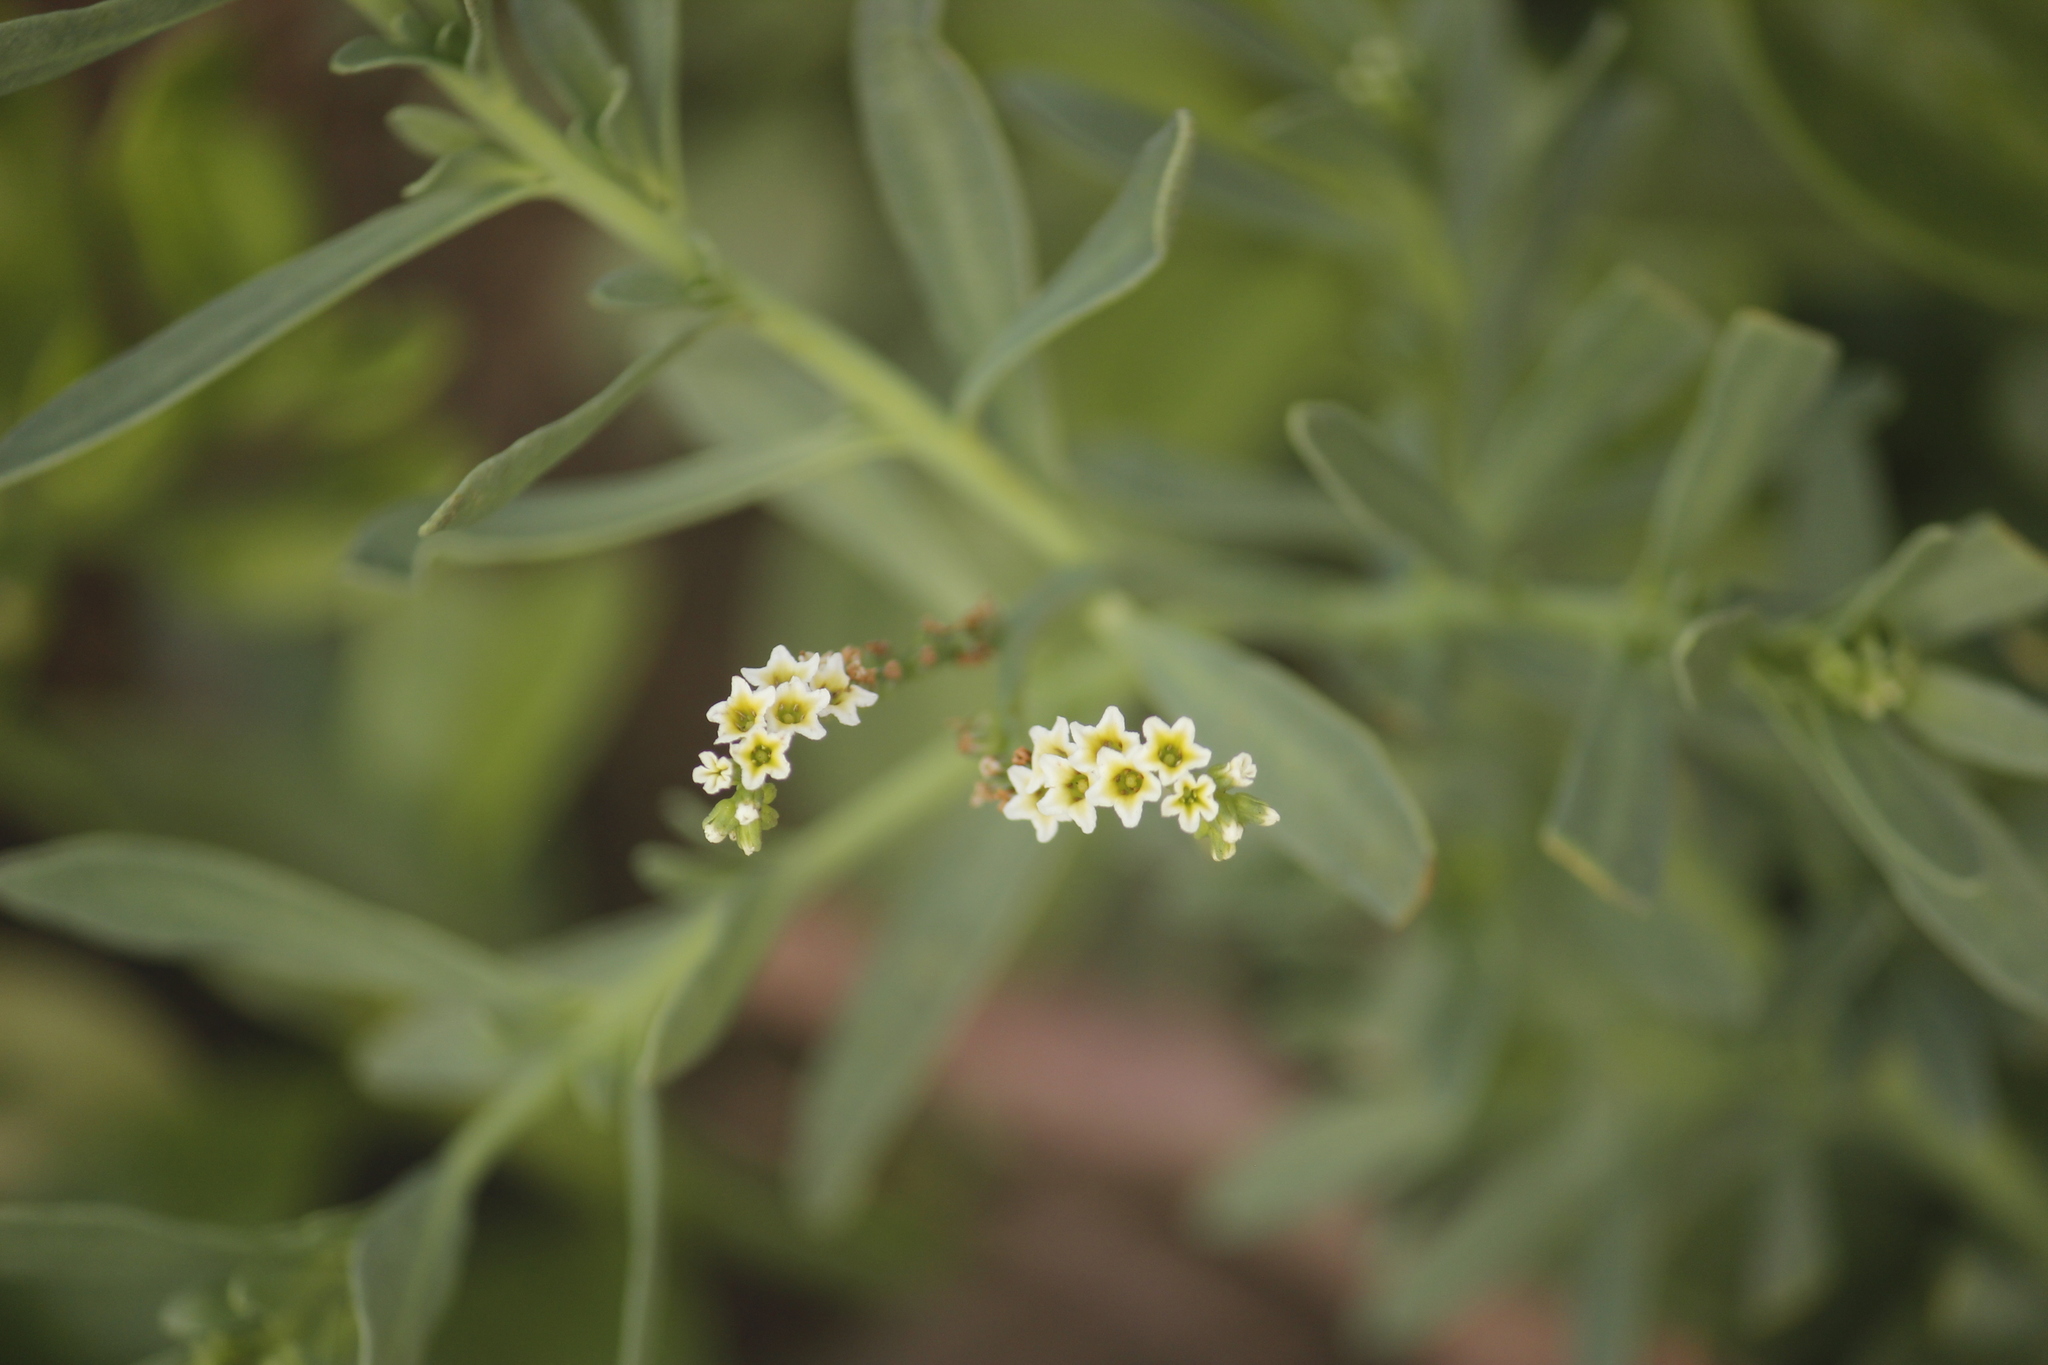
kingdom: Plantae
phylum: Tracheophyta
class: Magnoliopsida
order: Boraginales
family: Heliotropiaceae
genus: Heliotropium
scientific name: Heliotropium curassavicum
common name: Seaside heliotrope
